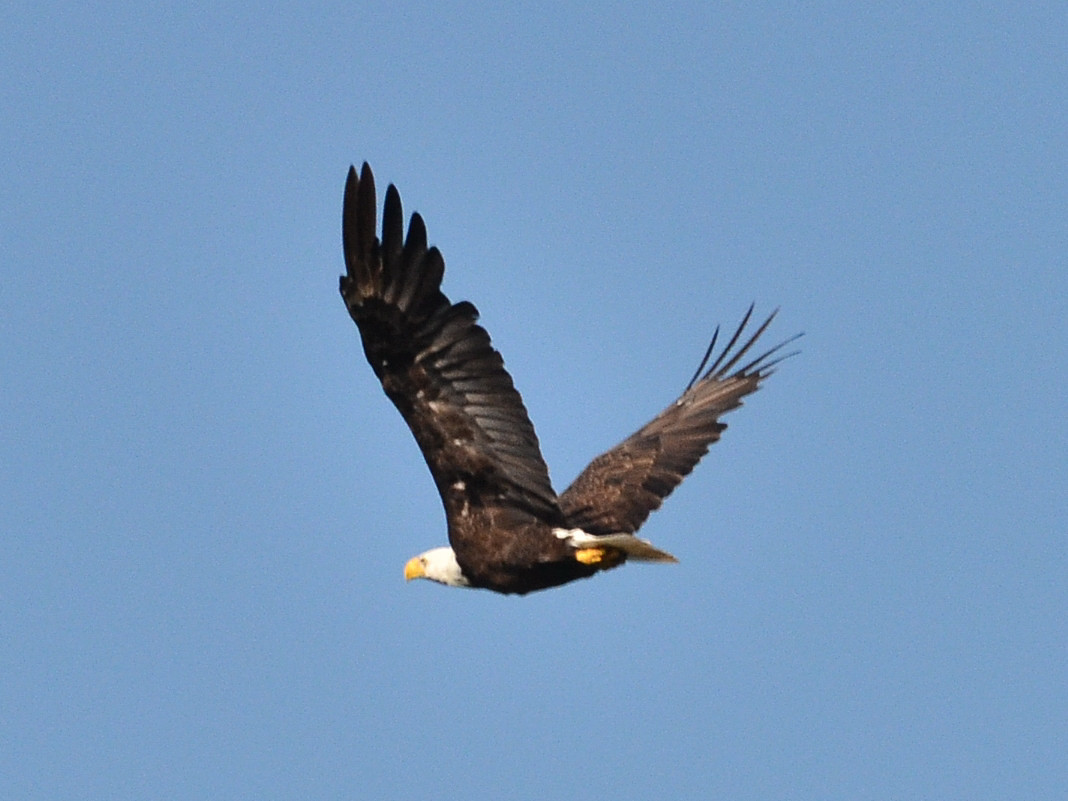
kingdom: Animalia
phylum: Chordata
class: Aves
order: Accipitriformes
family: Accipitridae
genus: Haliaeetus
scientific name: Haliaeetus leucocephalus
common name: Bald eagle
